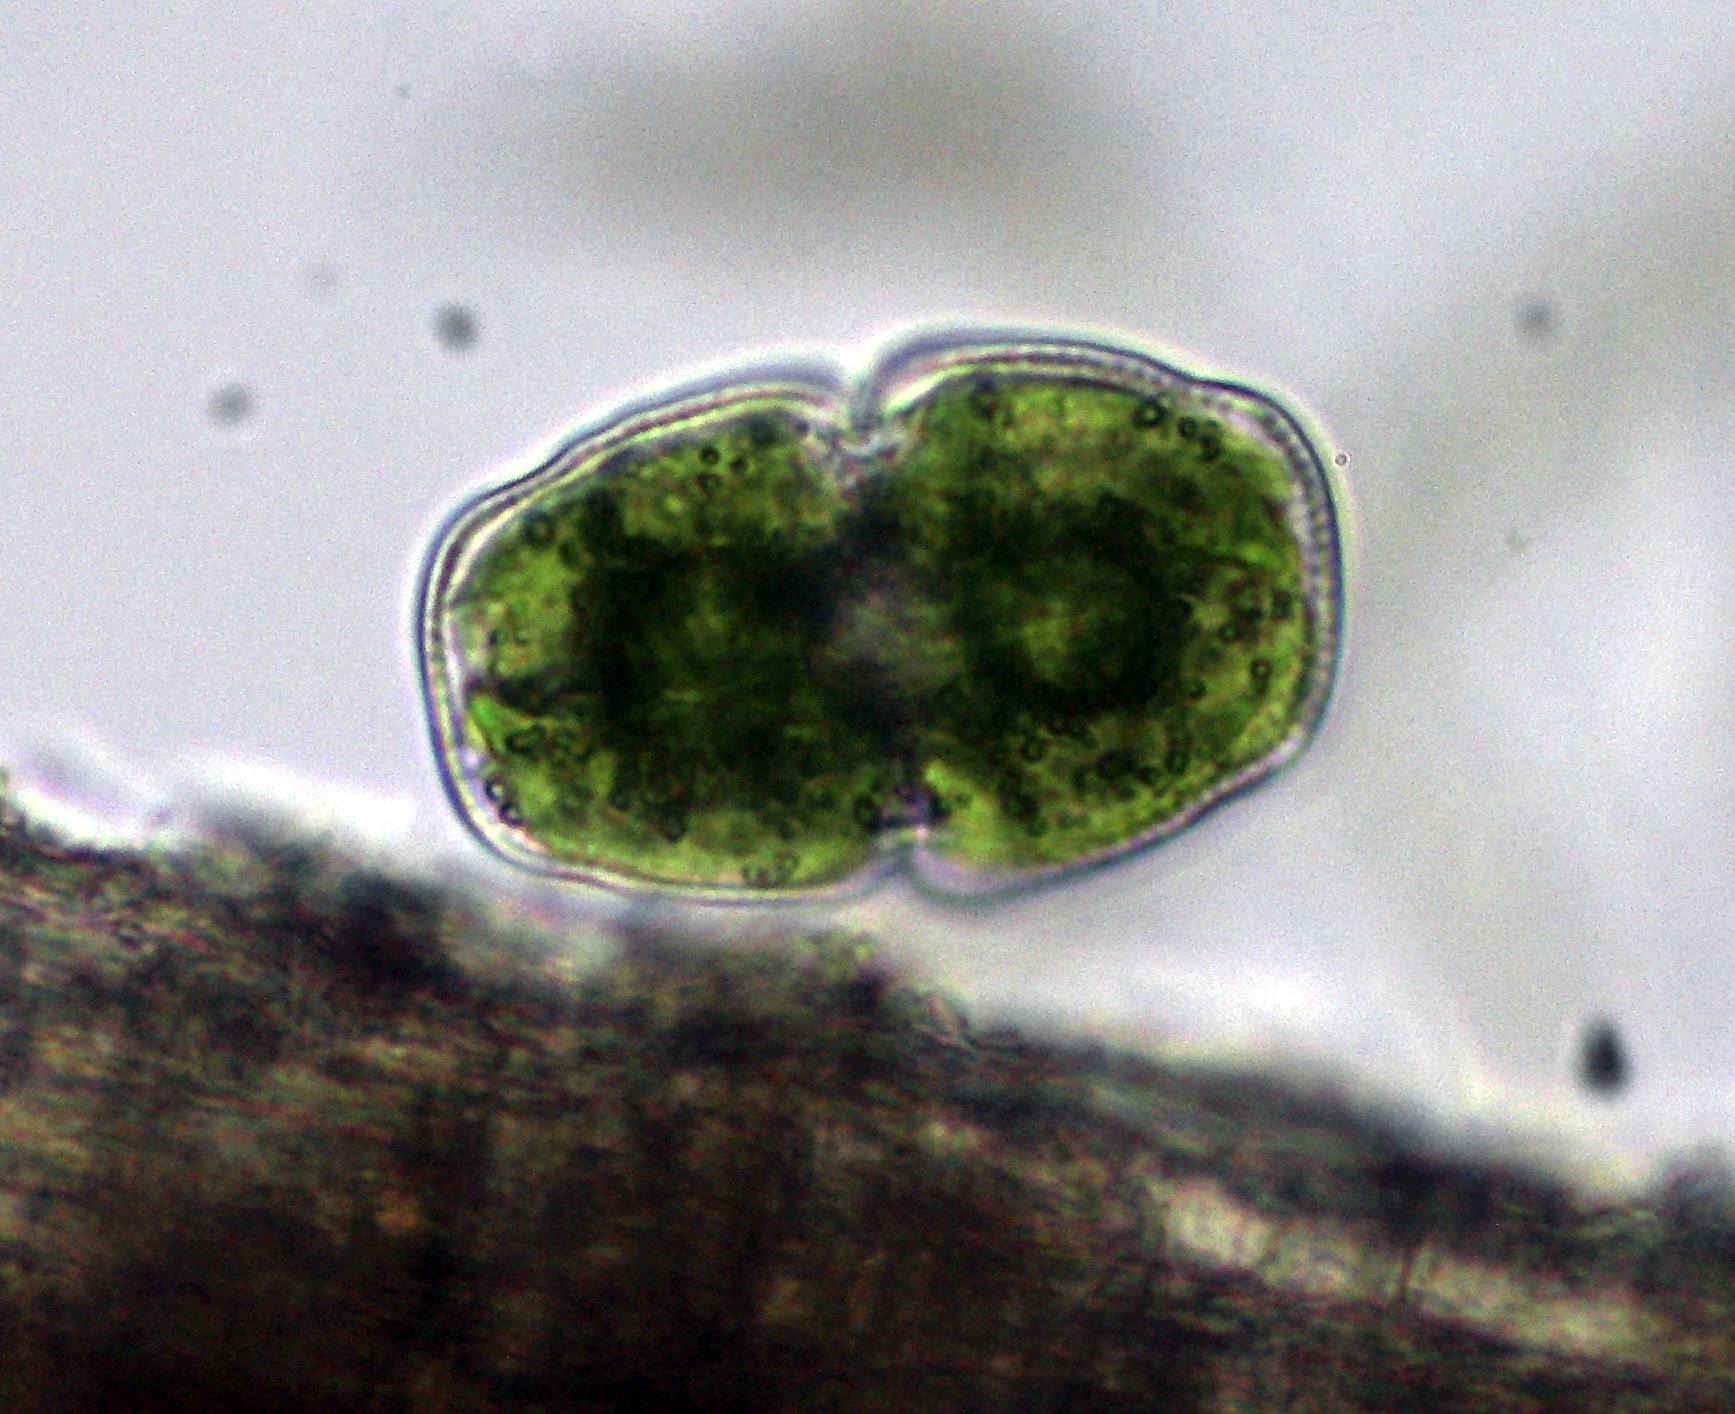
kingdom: Plantae
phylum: Charophyta
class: Conjugatophyceae
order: Desmidiales
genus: Cosmarium
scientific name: Cosmarium holmiense
